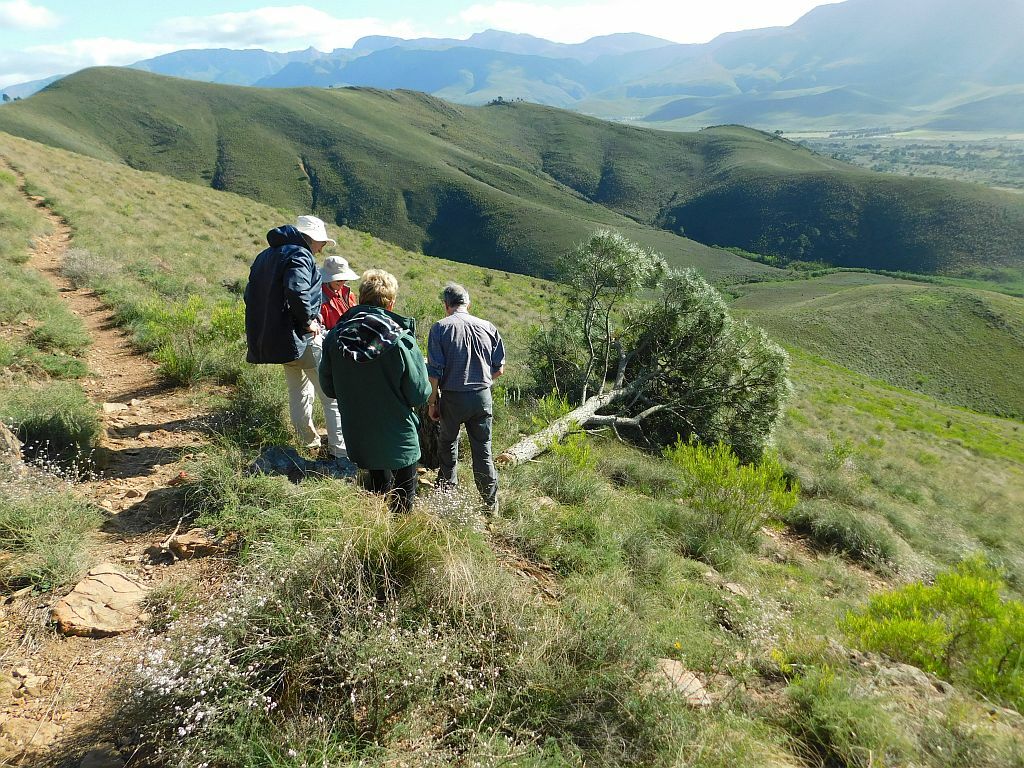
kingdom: Plantae
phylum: Tracheophyta
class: Pinopsida
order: Pinales
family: Pinaceae
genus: Pinus
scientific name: Pinus pinaster
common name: Maritime pine
